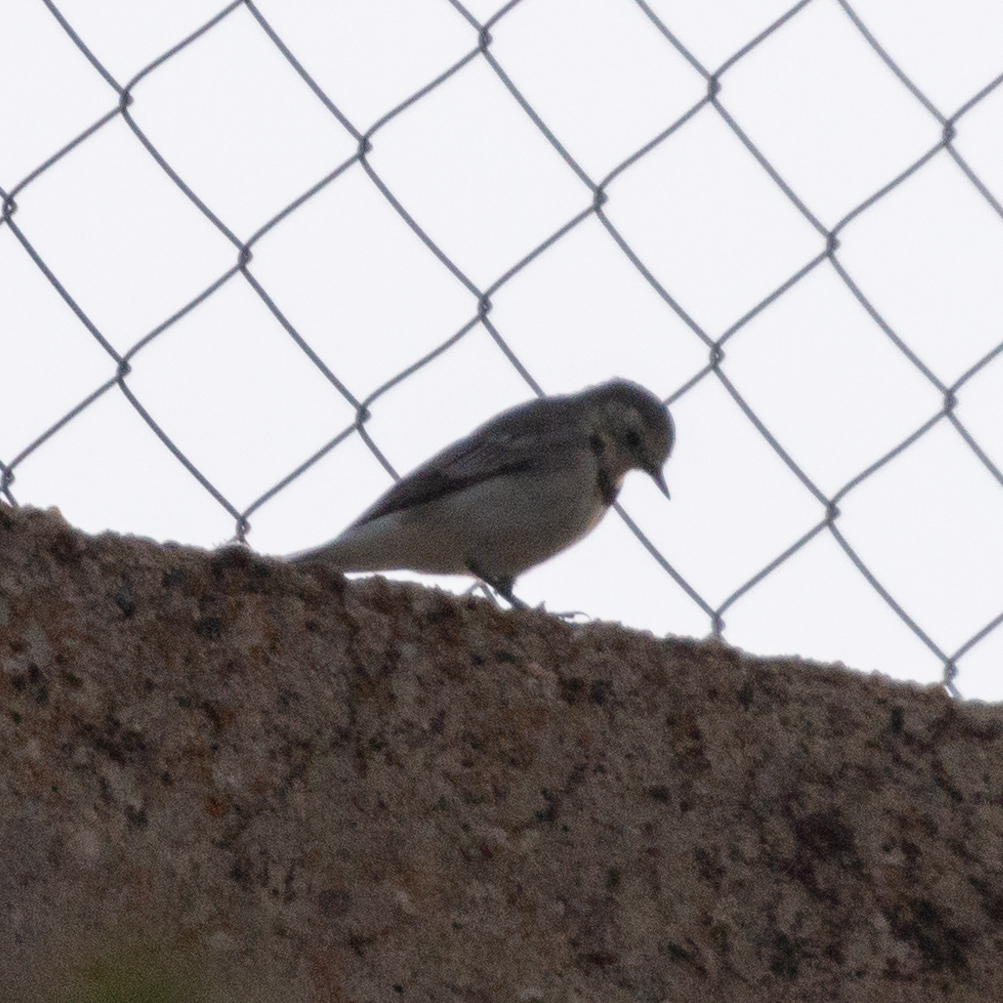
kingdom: Animalia
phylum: Chordata
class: Aves
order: Passeriformes
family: Motacillidae
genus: Motacilla
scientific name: Motacilla alba
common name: White wagtail
